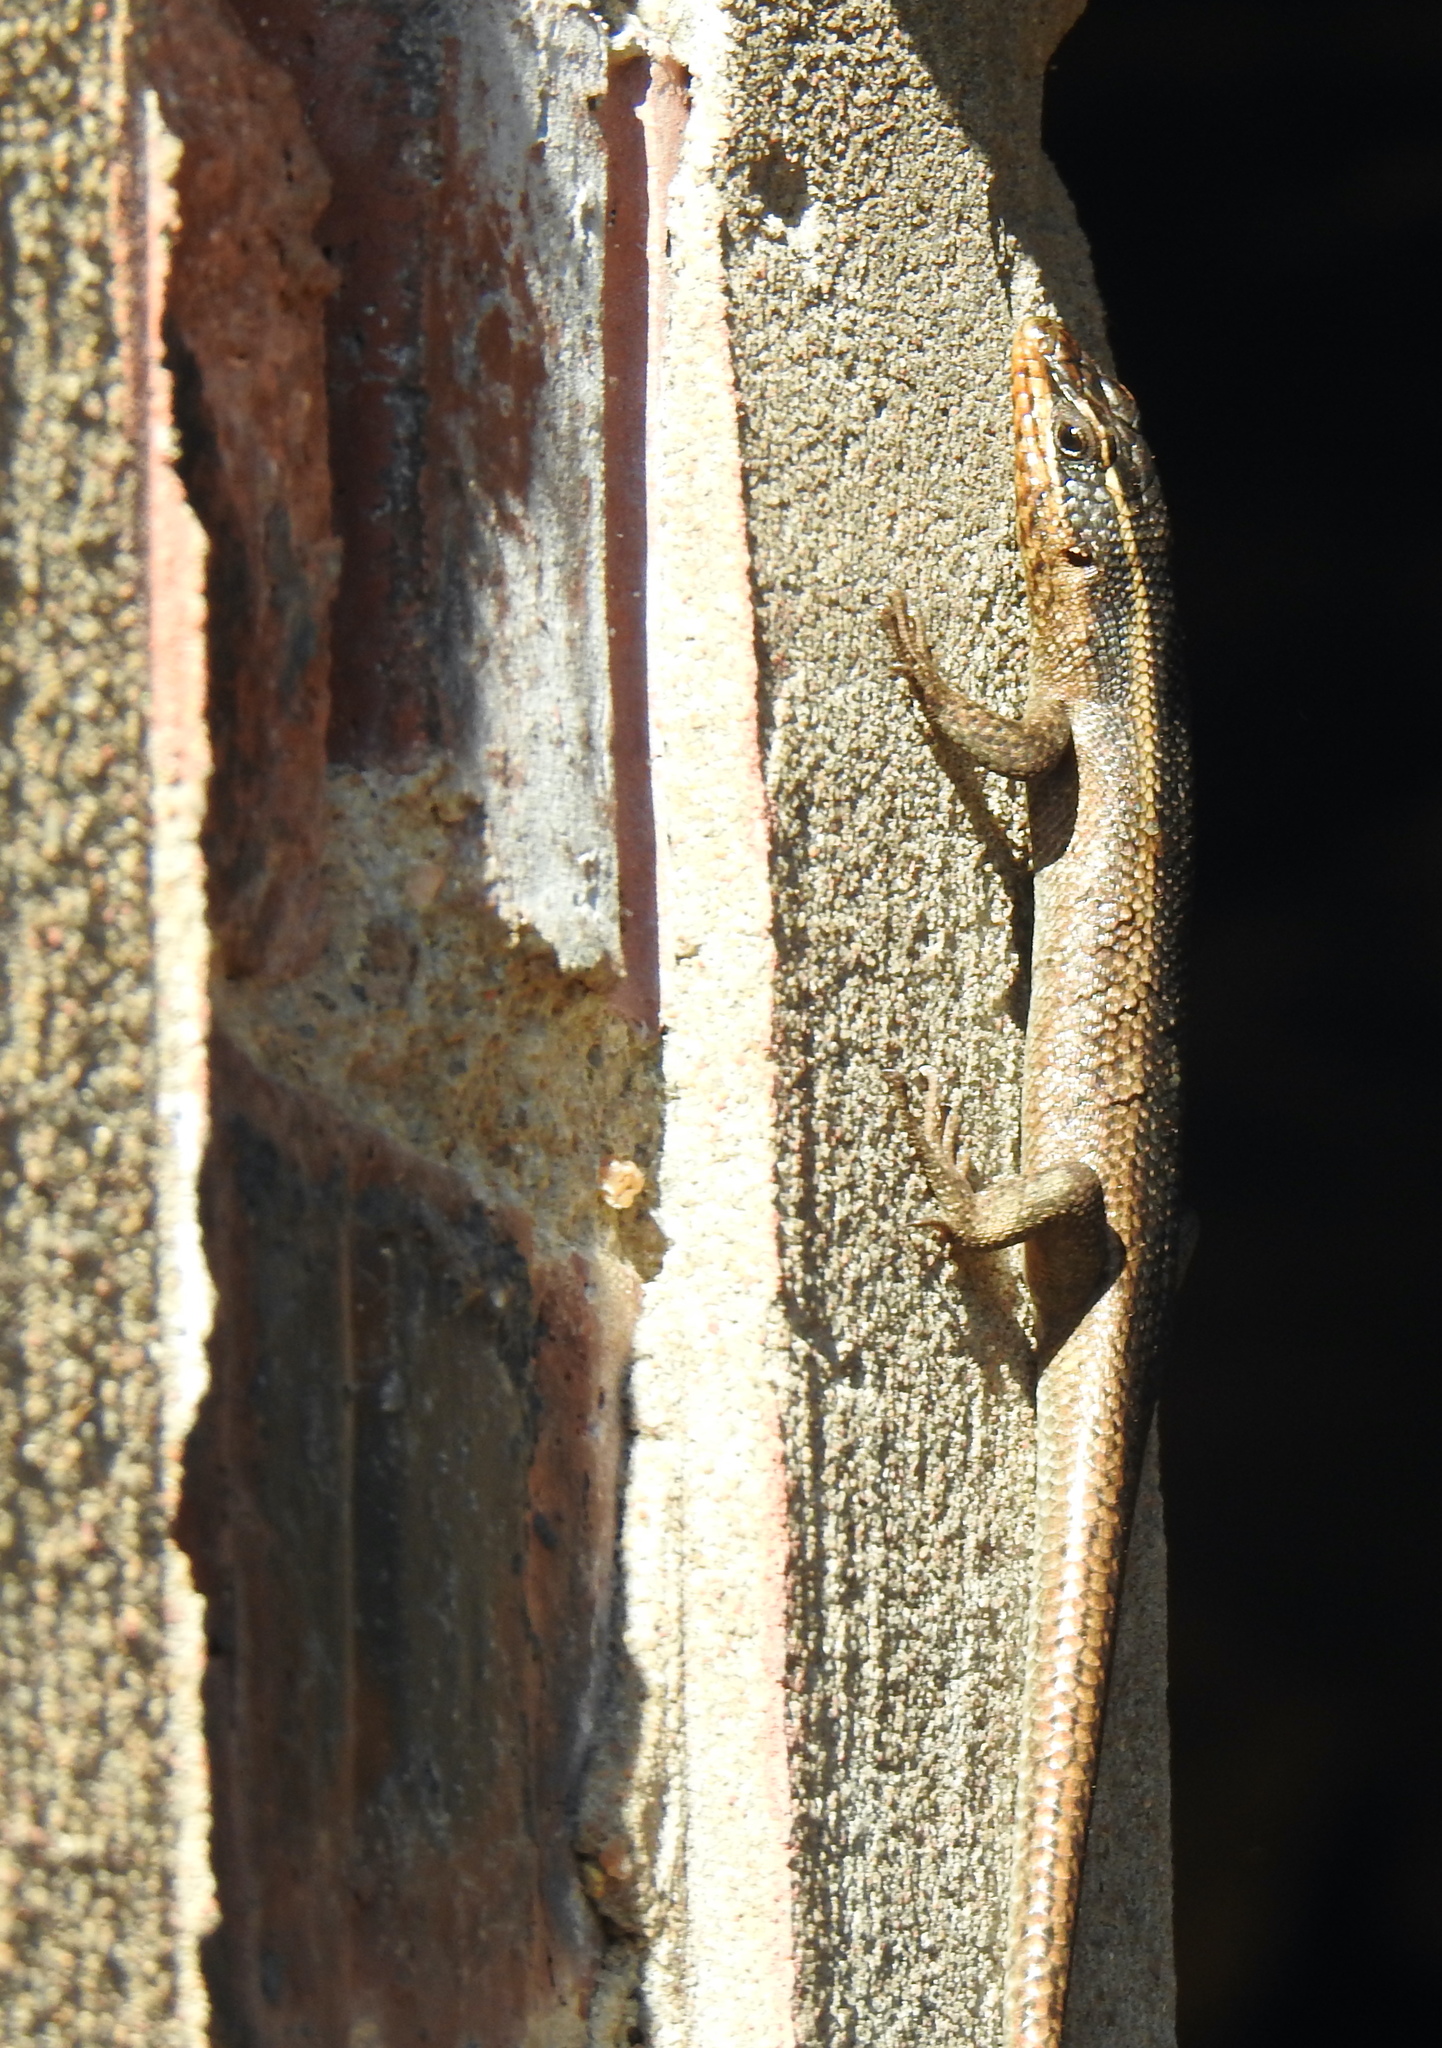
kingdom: Animalia
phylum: Chordata
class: Squamata
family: Scincidae
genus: Trachylepis
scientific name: Trachylepis punctatissima
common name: Montane speckled skink
